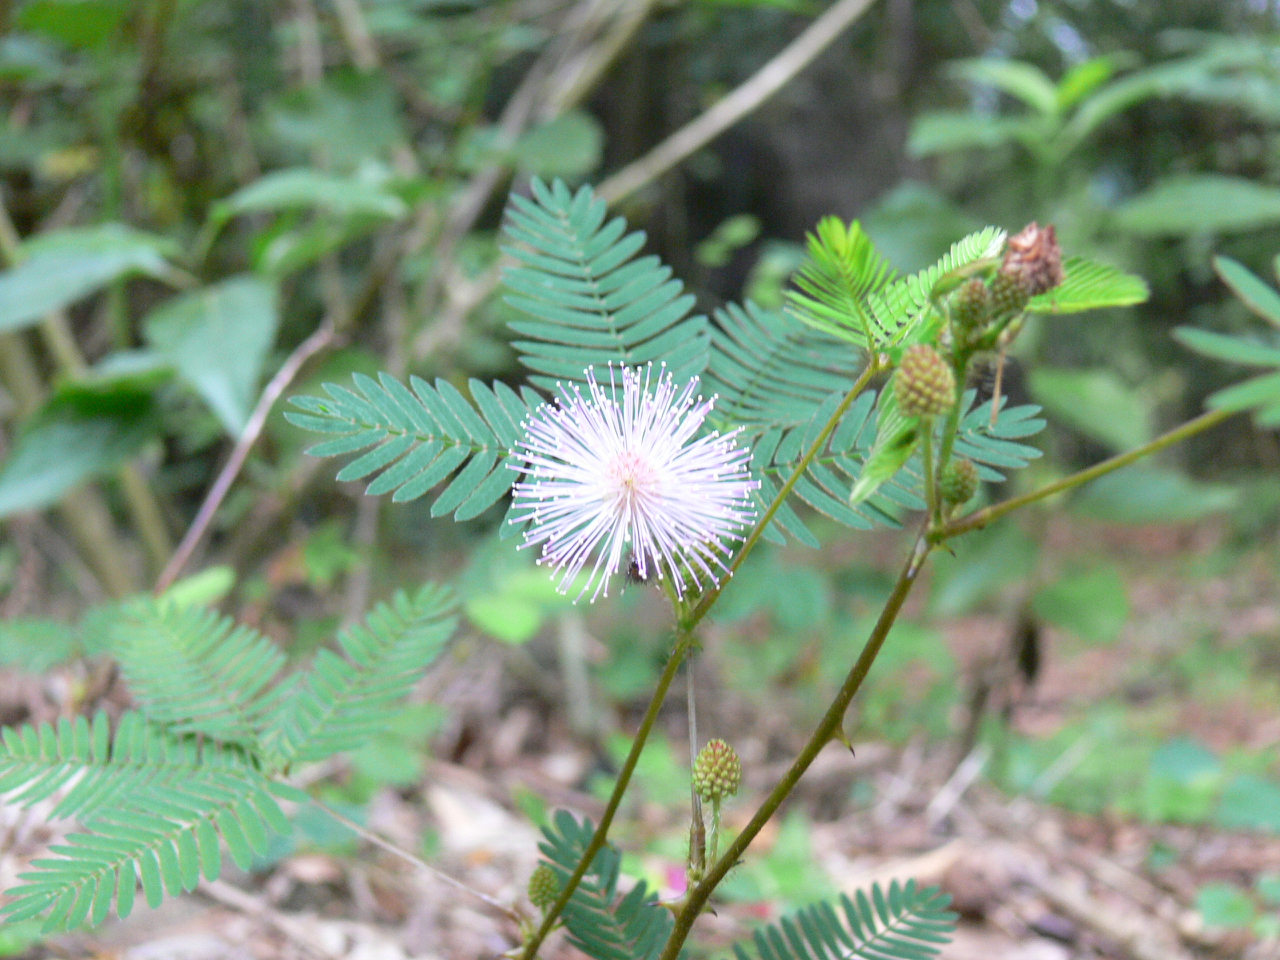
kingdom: Plantae
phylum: Tracheophyta
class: Magnoliopsida
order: Fabales
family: Fabaceae
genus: Mimosa
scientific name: Mimosa pudica
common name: Sensitive plant
